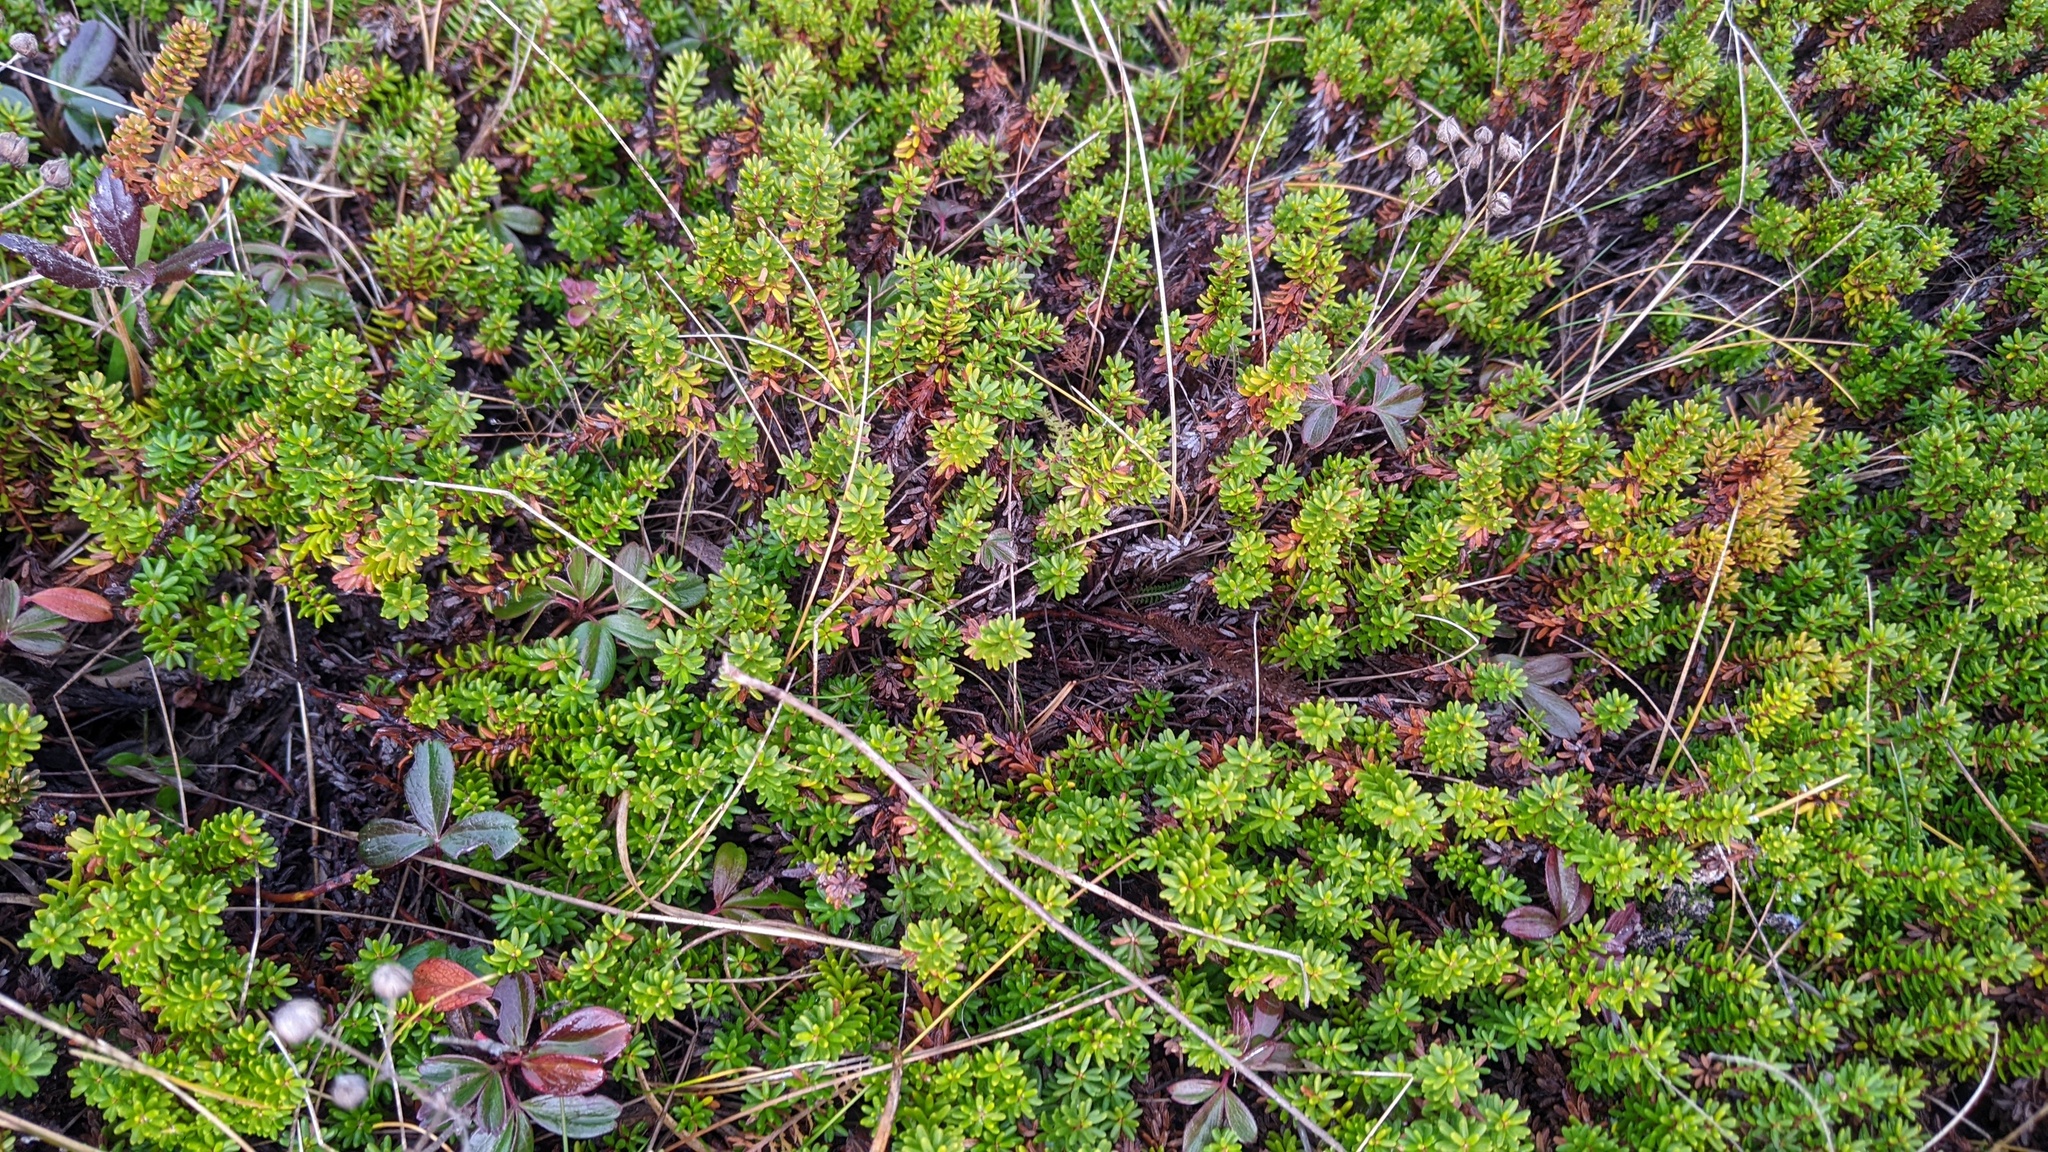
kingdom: Plantae
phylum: Tracheophyta
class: Magnoliopsida
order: Ericales
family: Ericaceae
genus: Empetrum
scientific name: Empetrum nigrum
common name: Black crowberry
